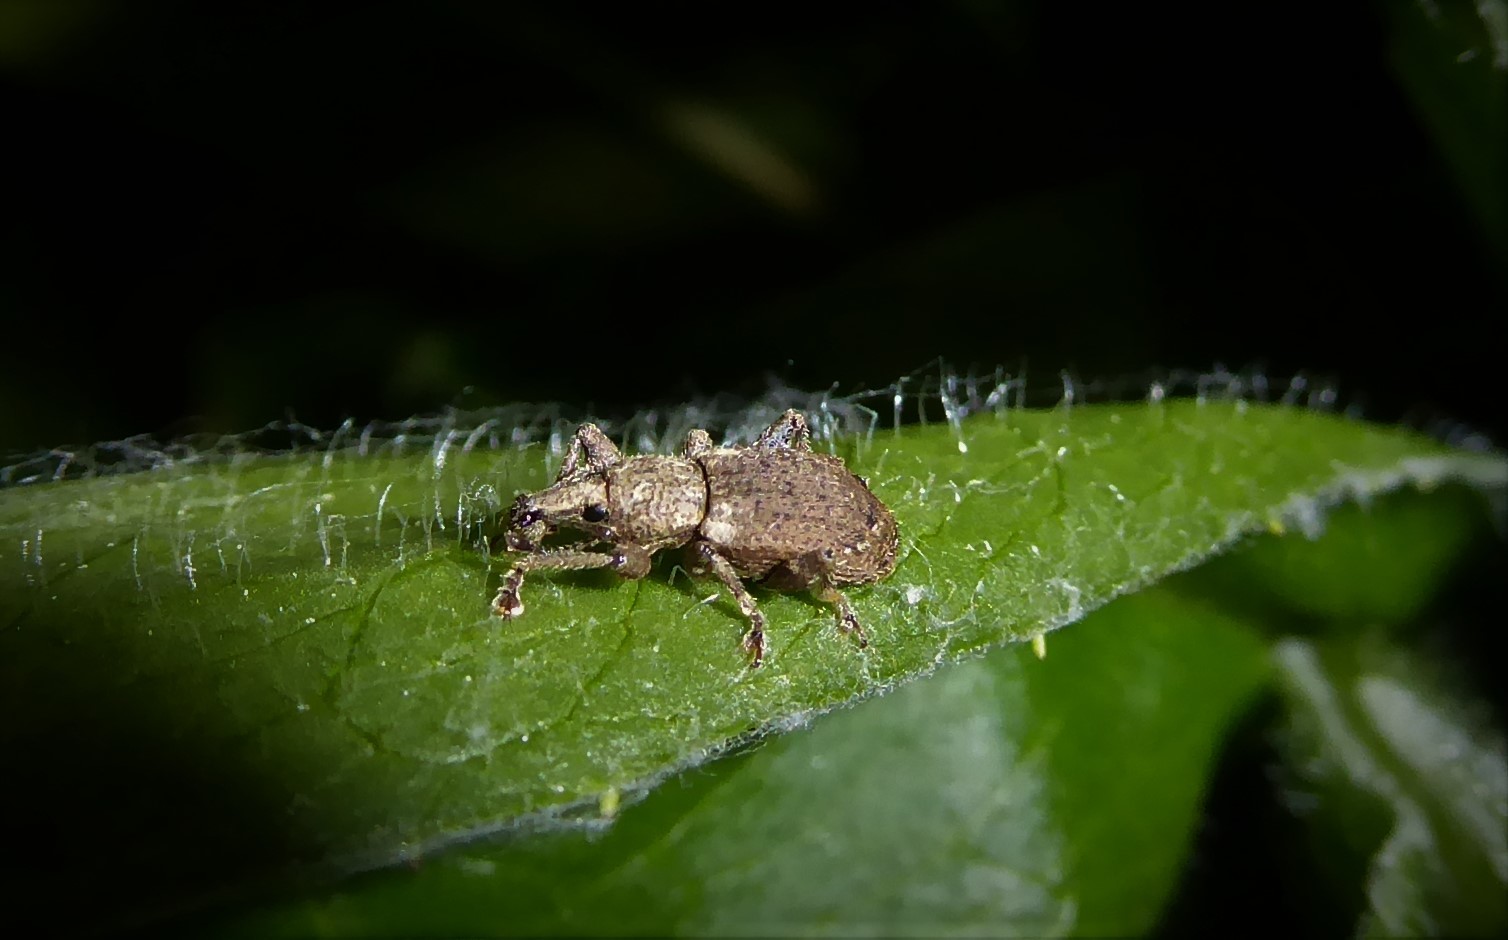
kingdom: Animalia
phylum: Arthropoda
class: Insecta
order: Coleoptera
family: Curculionidae
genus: Chalepistes
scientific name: Chalepistes rubidus
